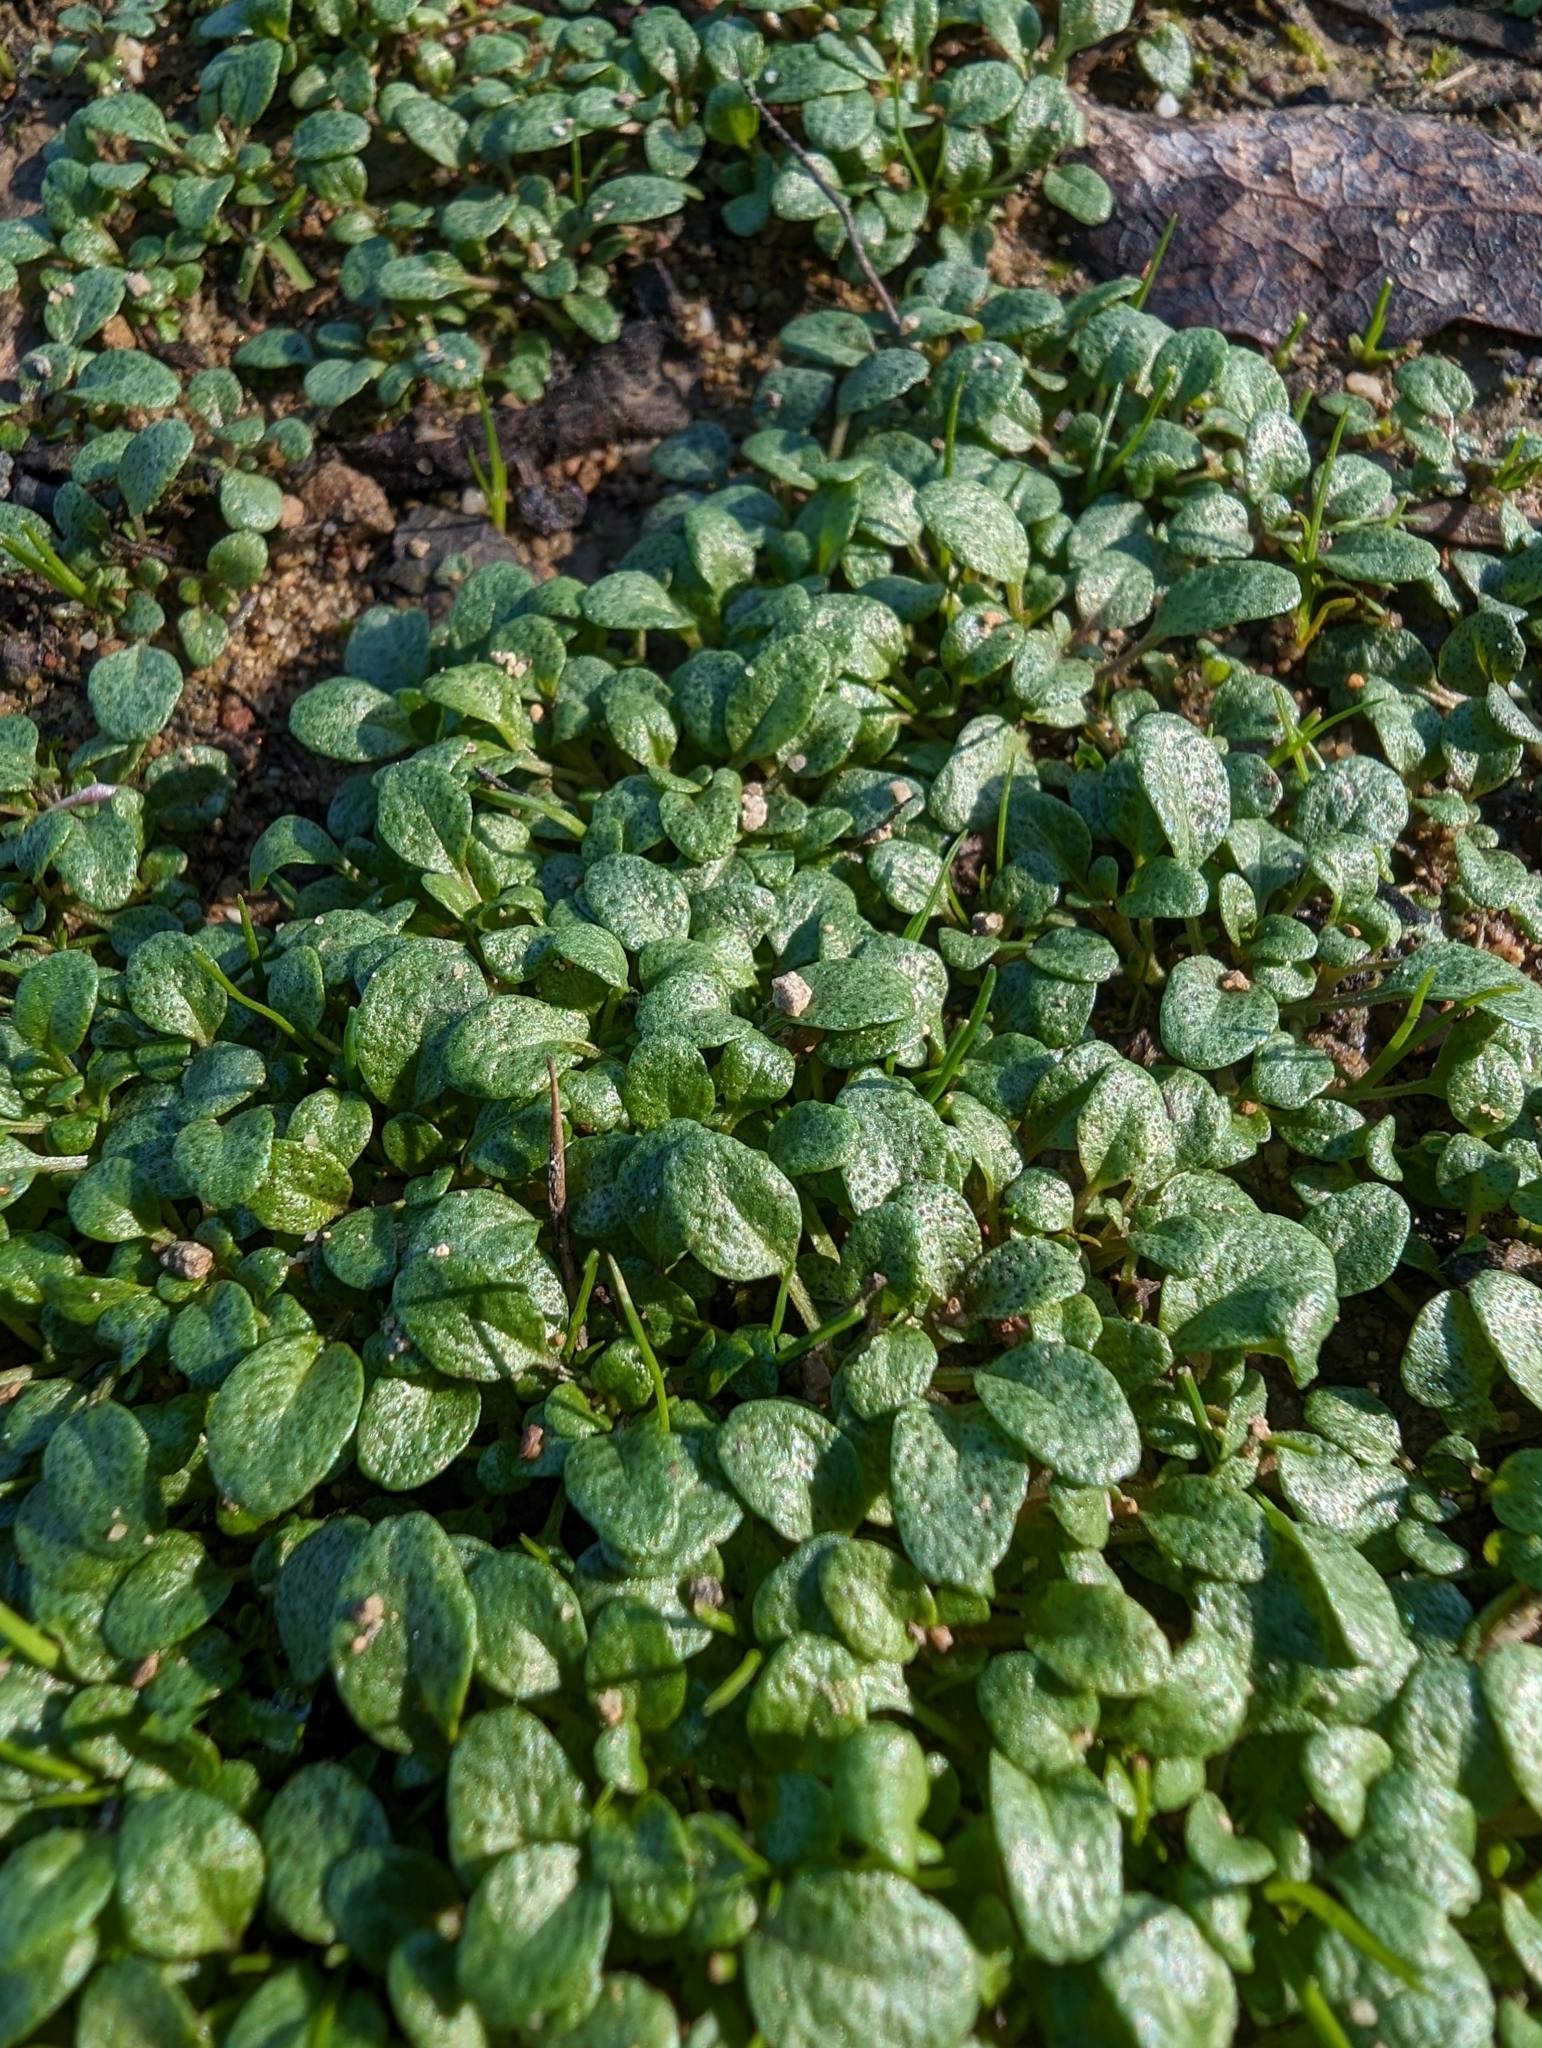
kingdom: Plantae
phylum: Tracheophyta
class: Magnoliopsida
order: Lamiales
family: Lamiaceae
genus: Pogogyne
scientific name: Pogogyne serpylloides
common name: Thymeleaf mesamint
